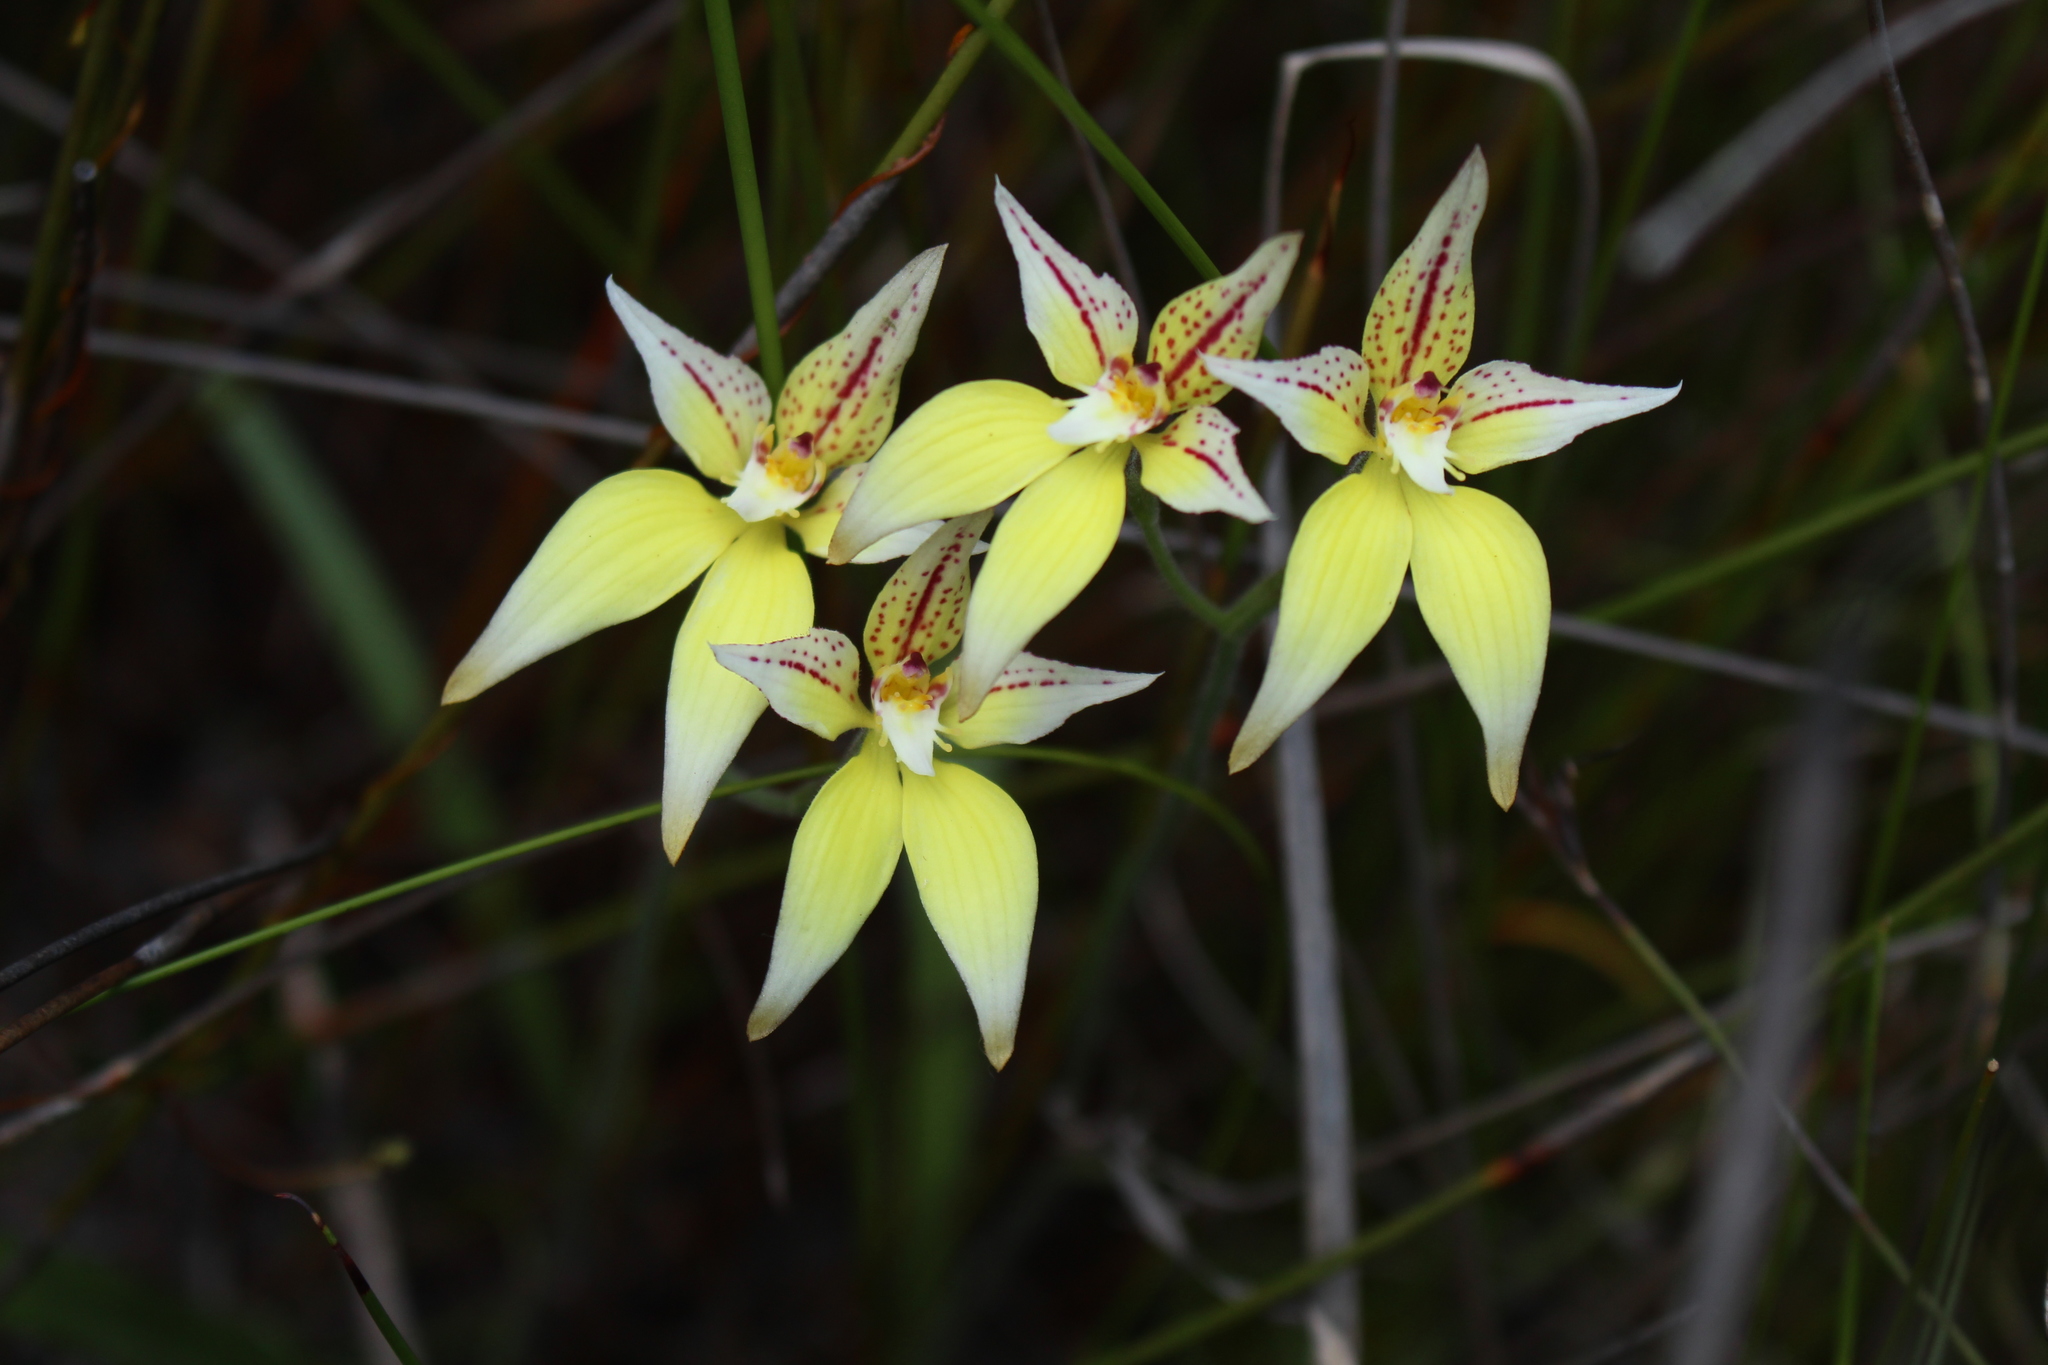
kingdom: Plantae
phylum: Tracheophyta
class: Liliopsida
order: Asparagales
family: Orchidaceae
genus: Caladenia
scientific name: Caladenia flava
